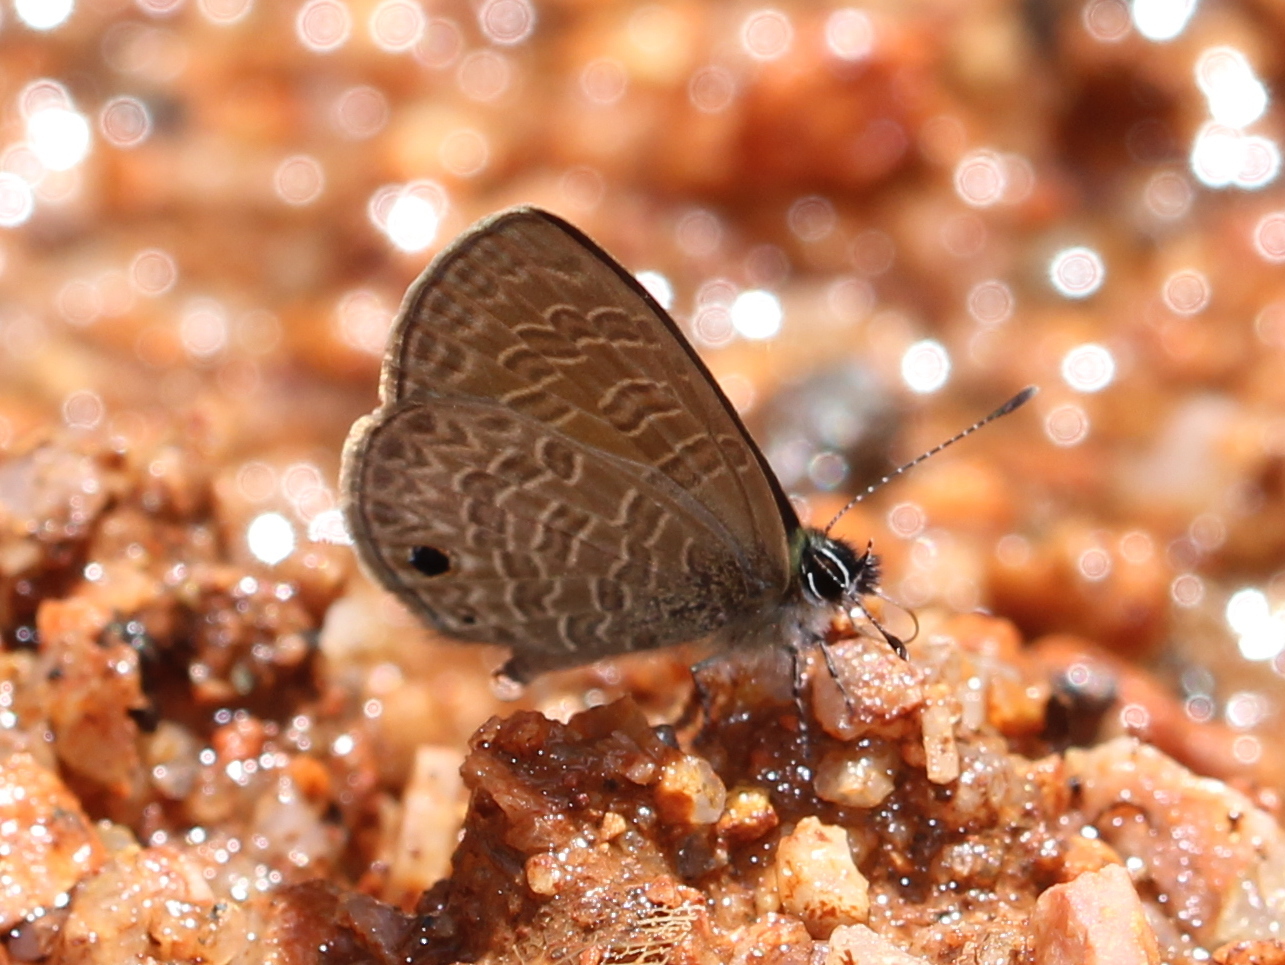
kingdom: Animalia
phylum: Arthropoda
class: Insecta
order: Lepidoptera
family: Lycaenidae
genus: Prosotas
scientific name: Prosotas dubiosa
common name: Tailless lineblue
